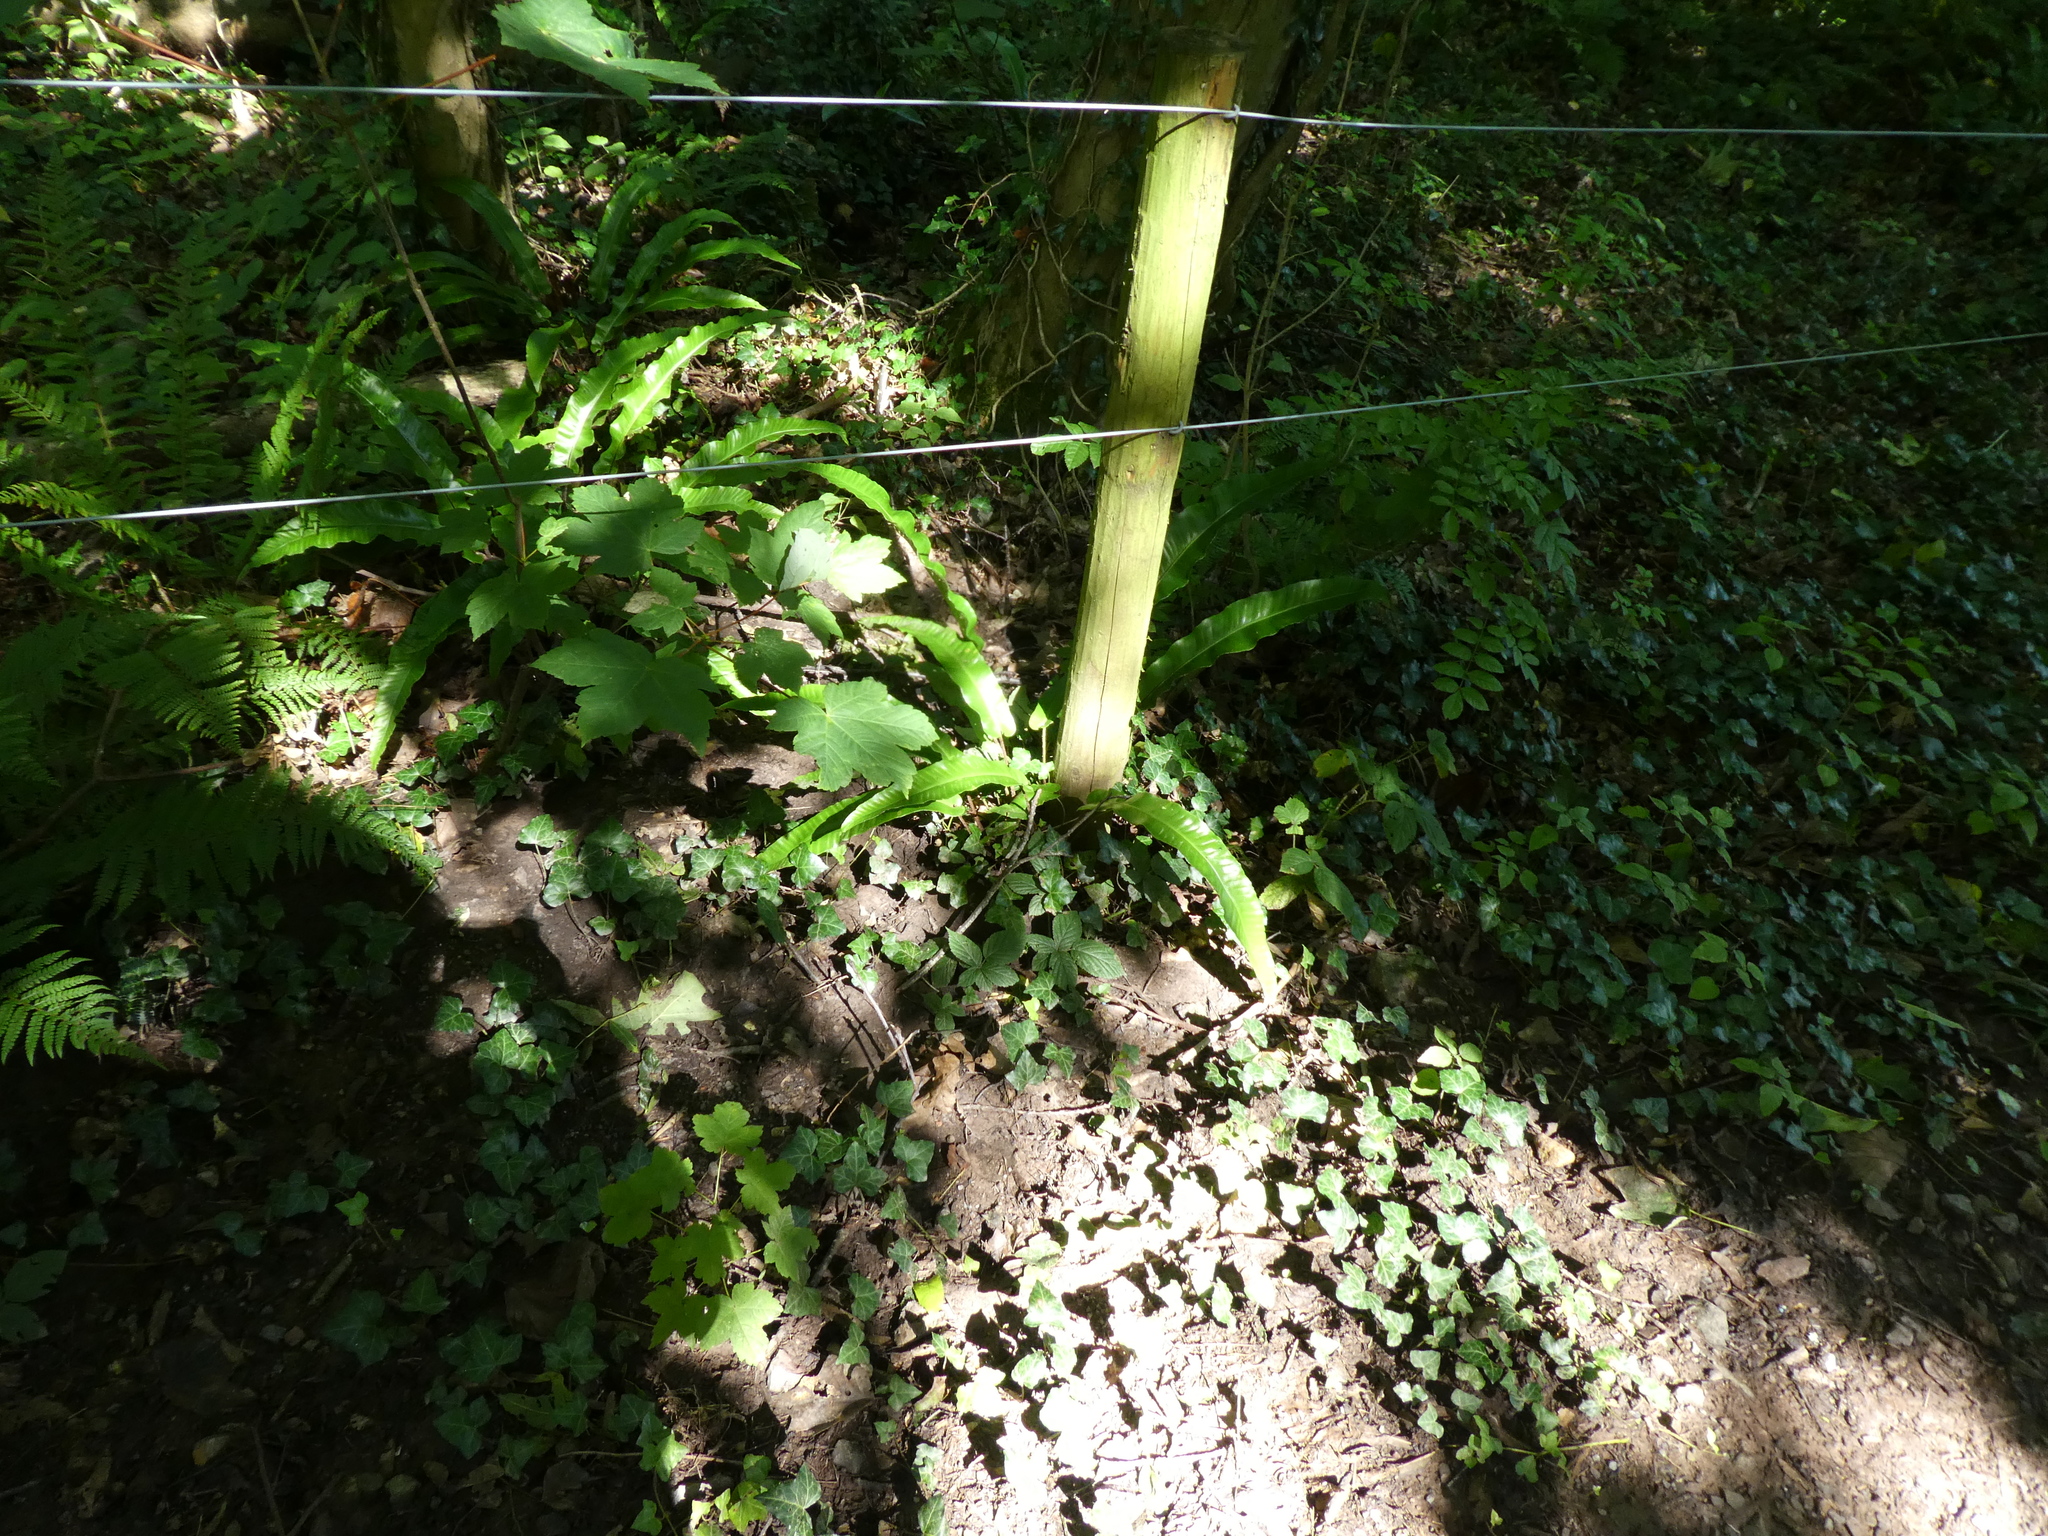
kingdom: Plantae
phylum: Tracheophyta
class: Polypodiopsida
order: Polypodiales
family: Aspleniaceae
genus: Asplenium
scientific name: Asplenium scolopendrium
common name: Hart's-tongue fern
